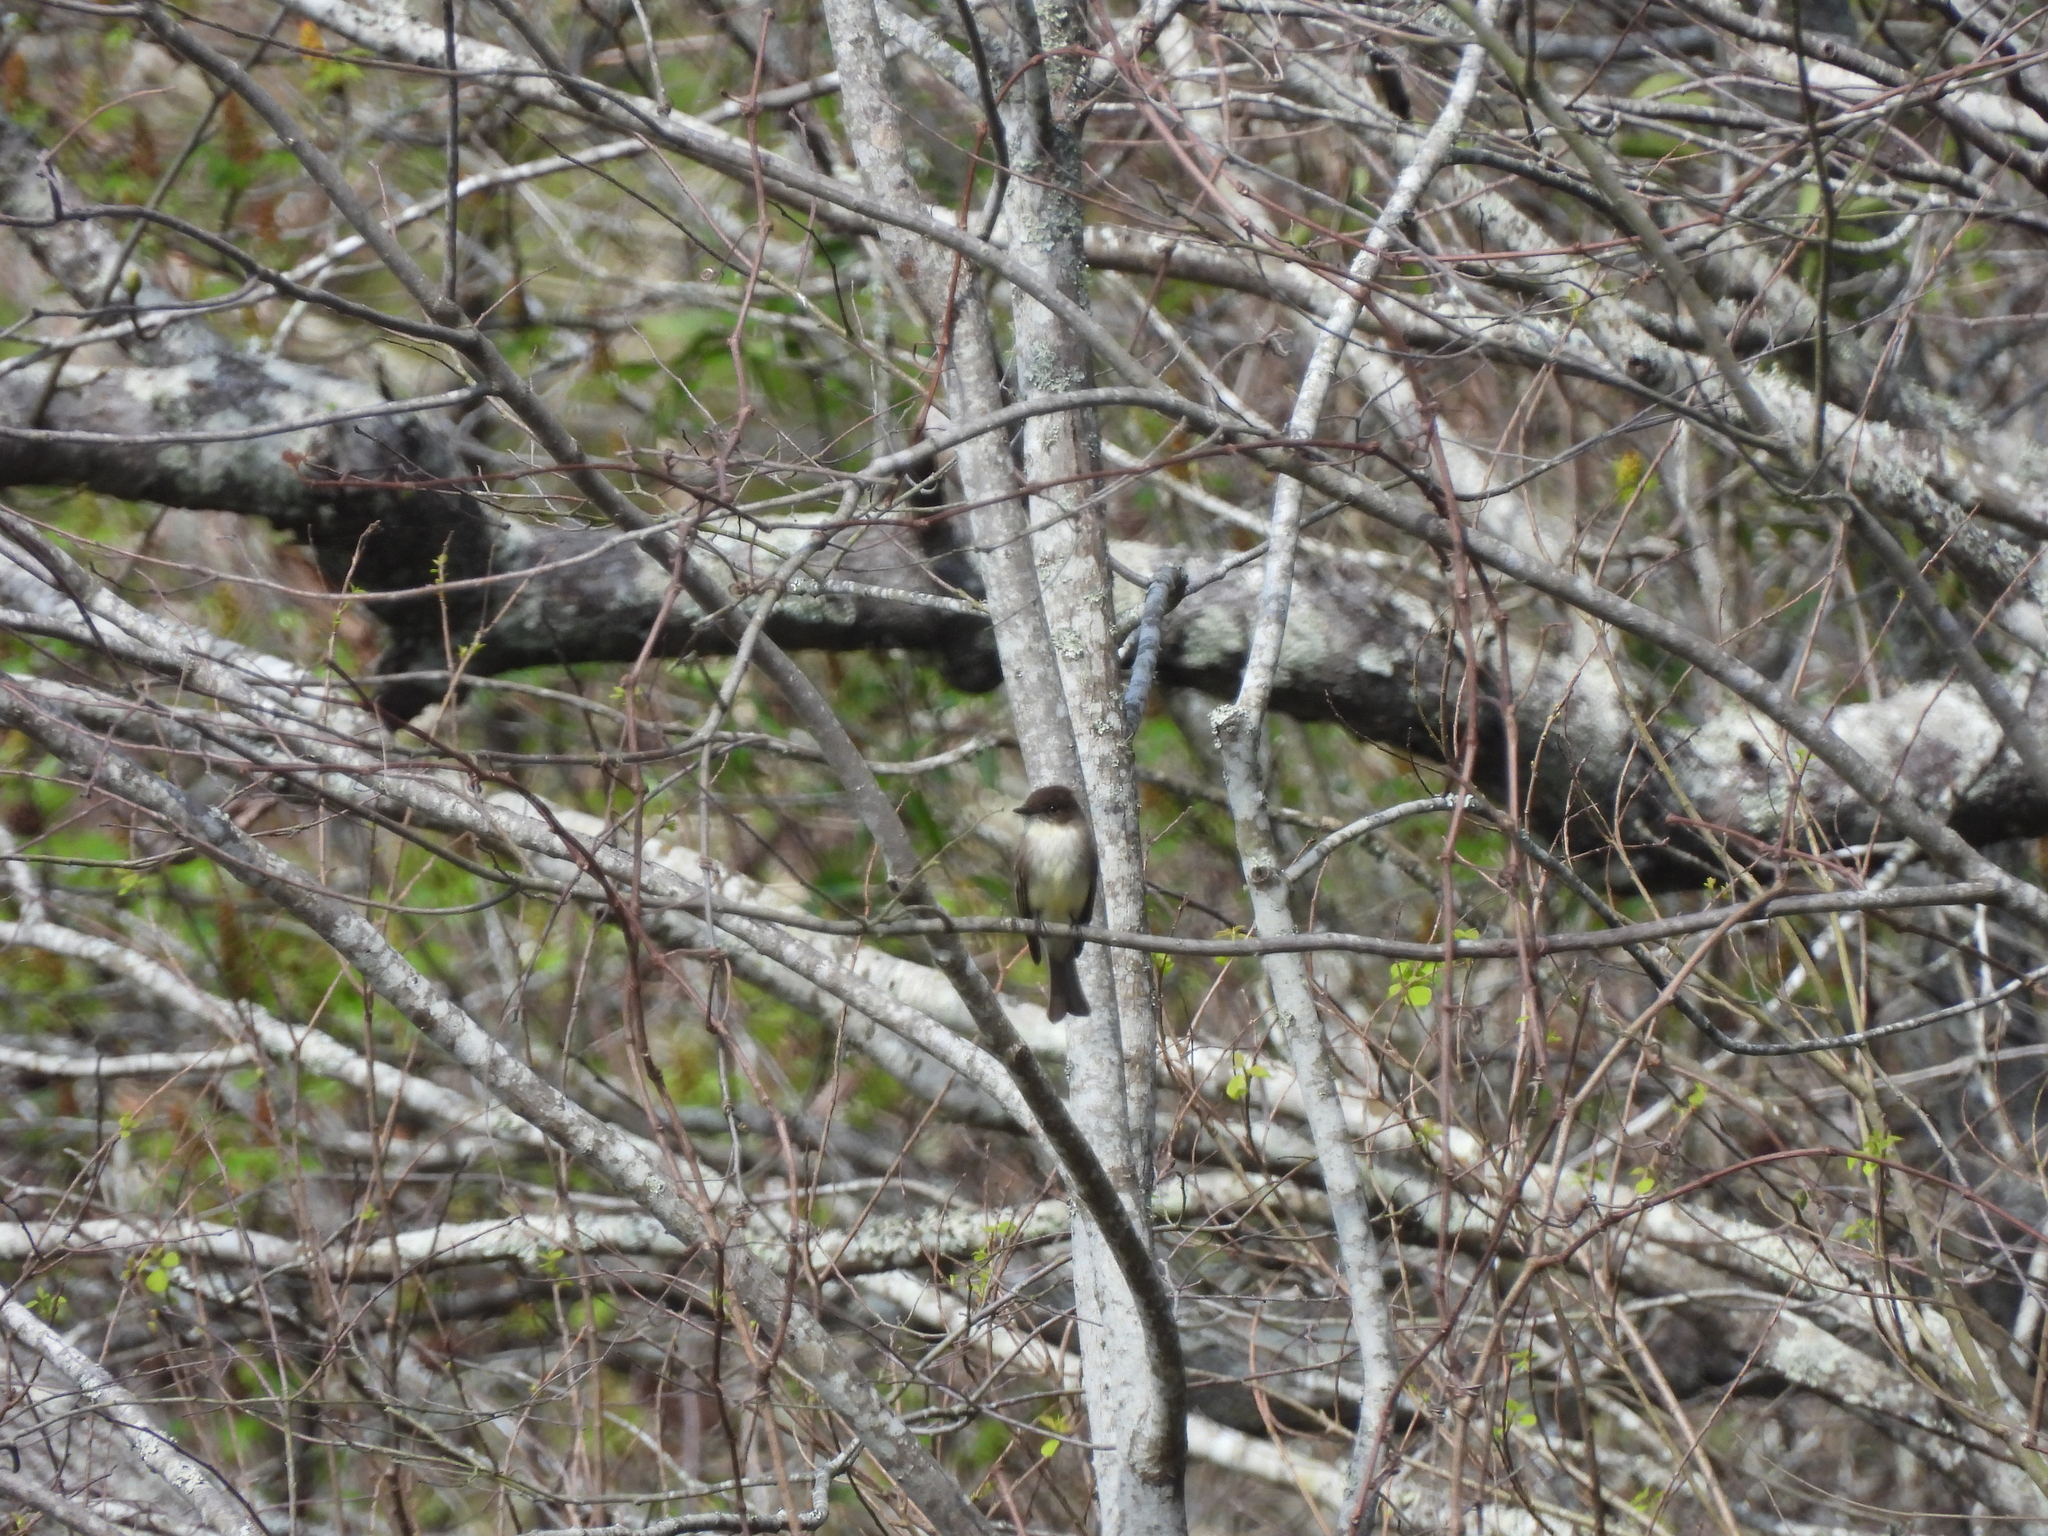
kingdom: Animalia
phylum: Chordata
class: Aves
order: Passeriformes
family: Tyrannidae
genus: Sayornis
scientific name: Sayornis phoebe
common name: Eastern phoebe
